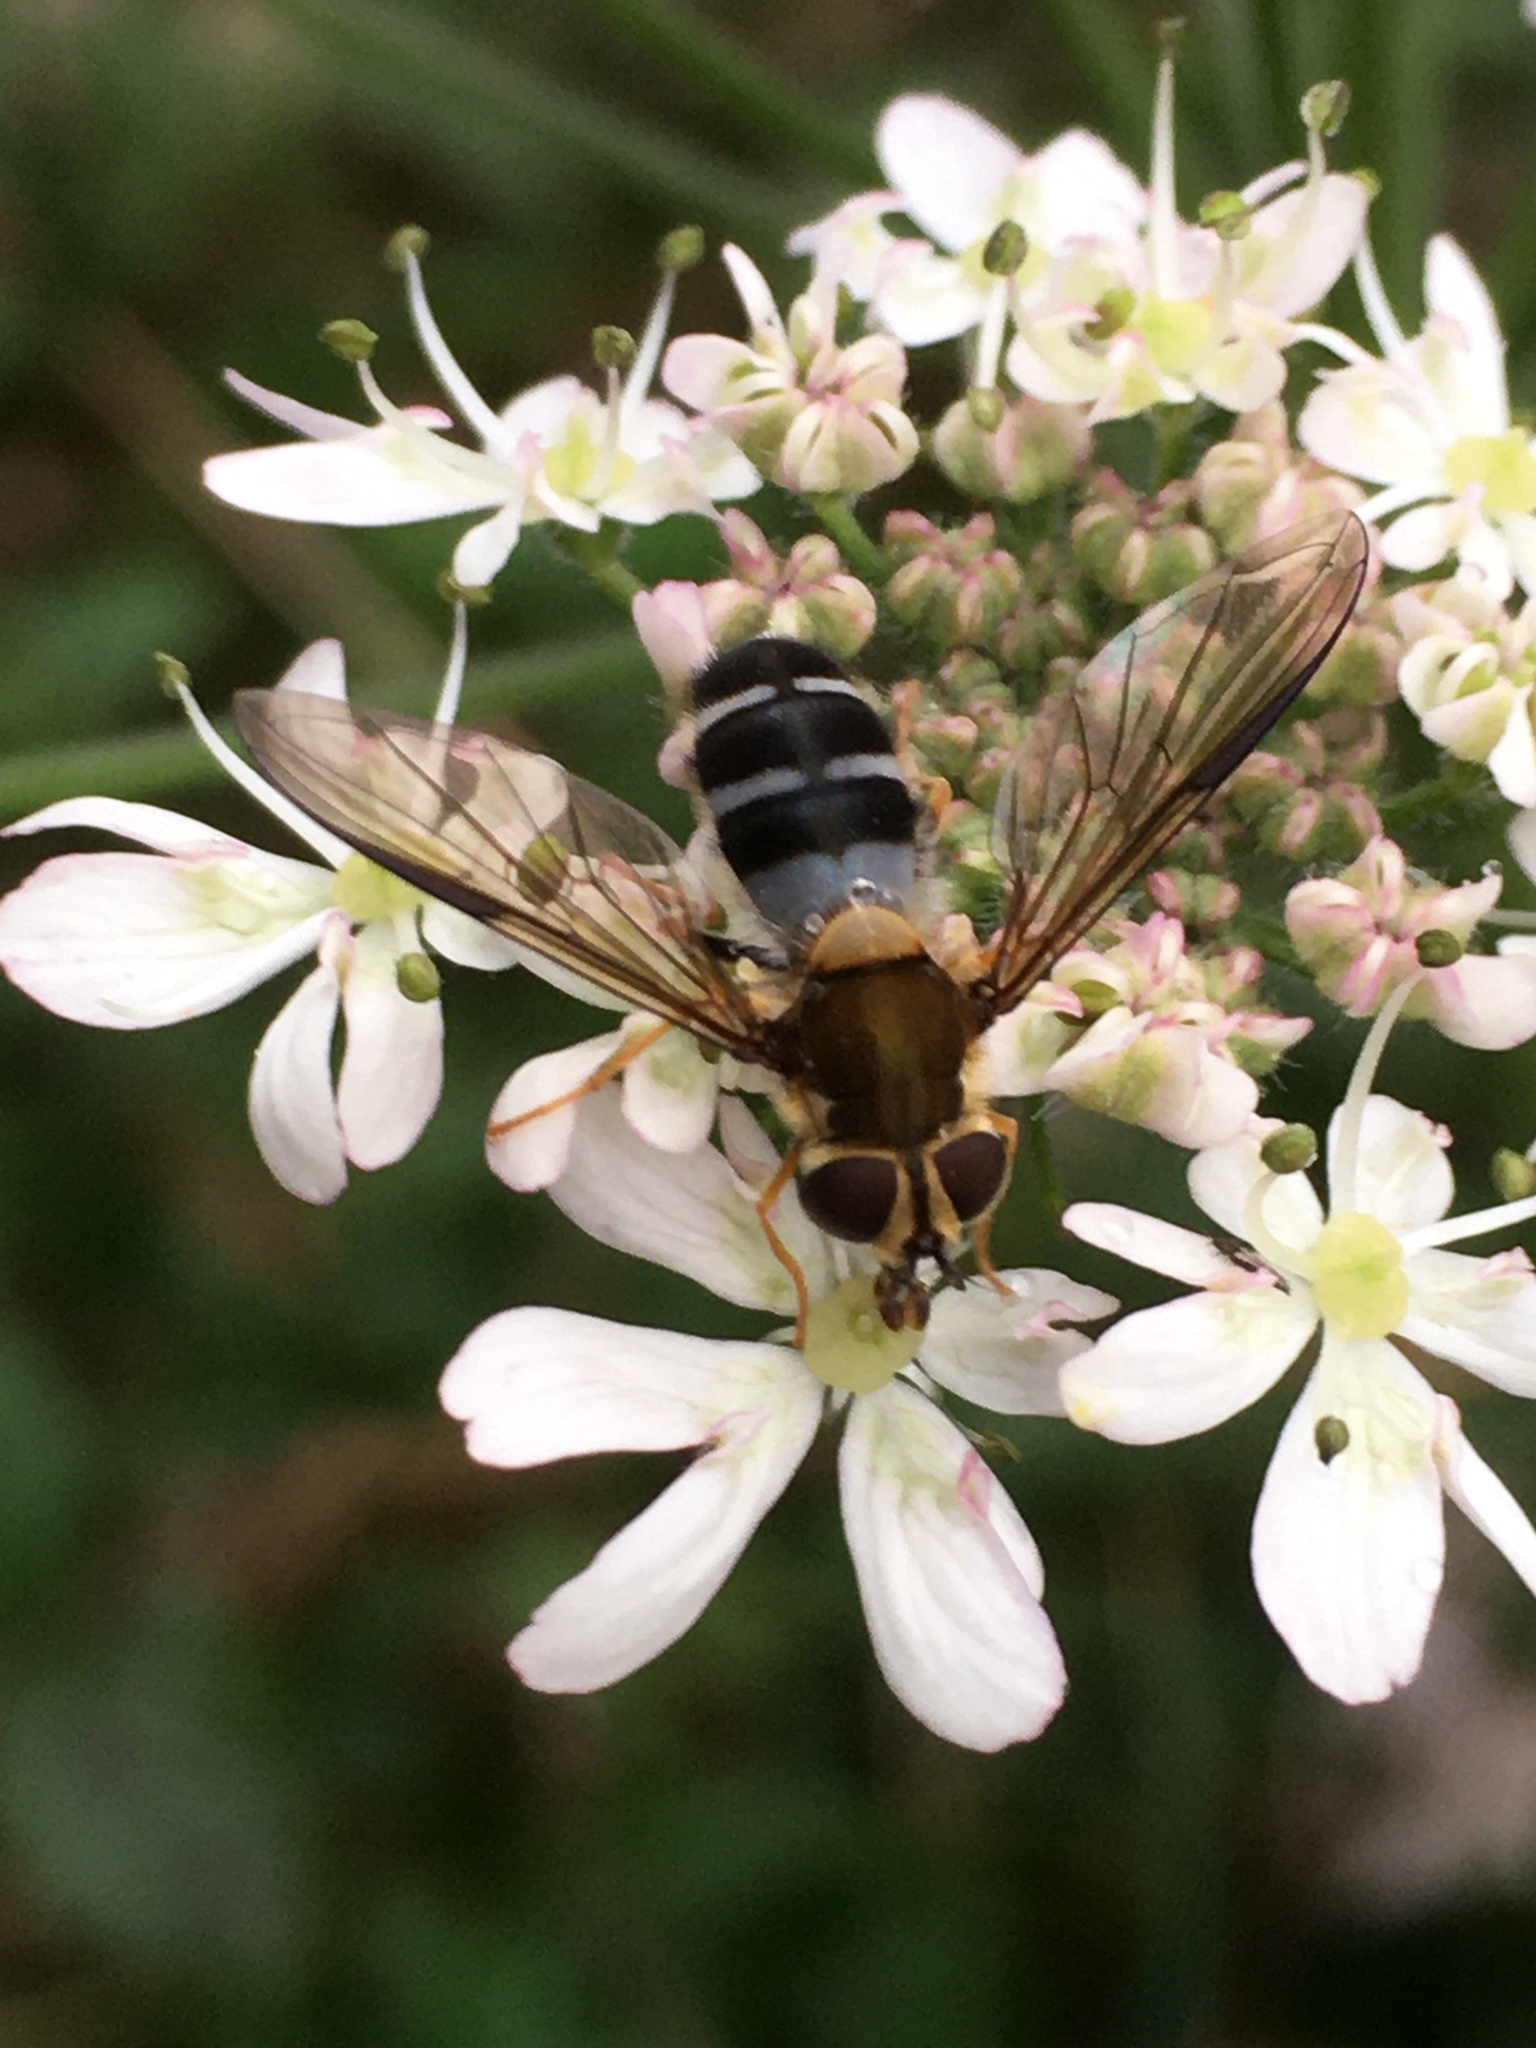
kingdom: Animalia
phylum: Arthropoda
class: Insecta
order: Diptera
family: Syrphidae
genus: Leucozona
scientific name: Leucozona glaucia
